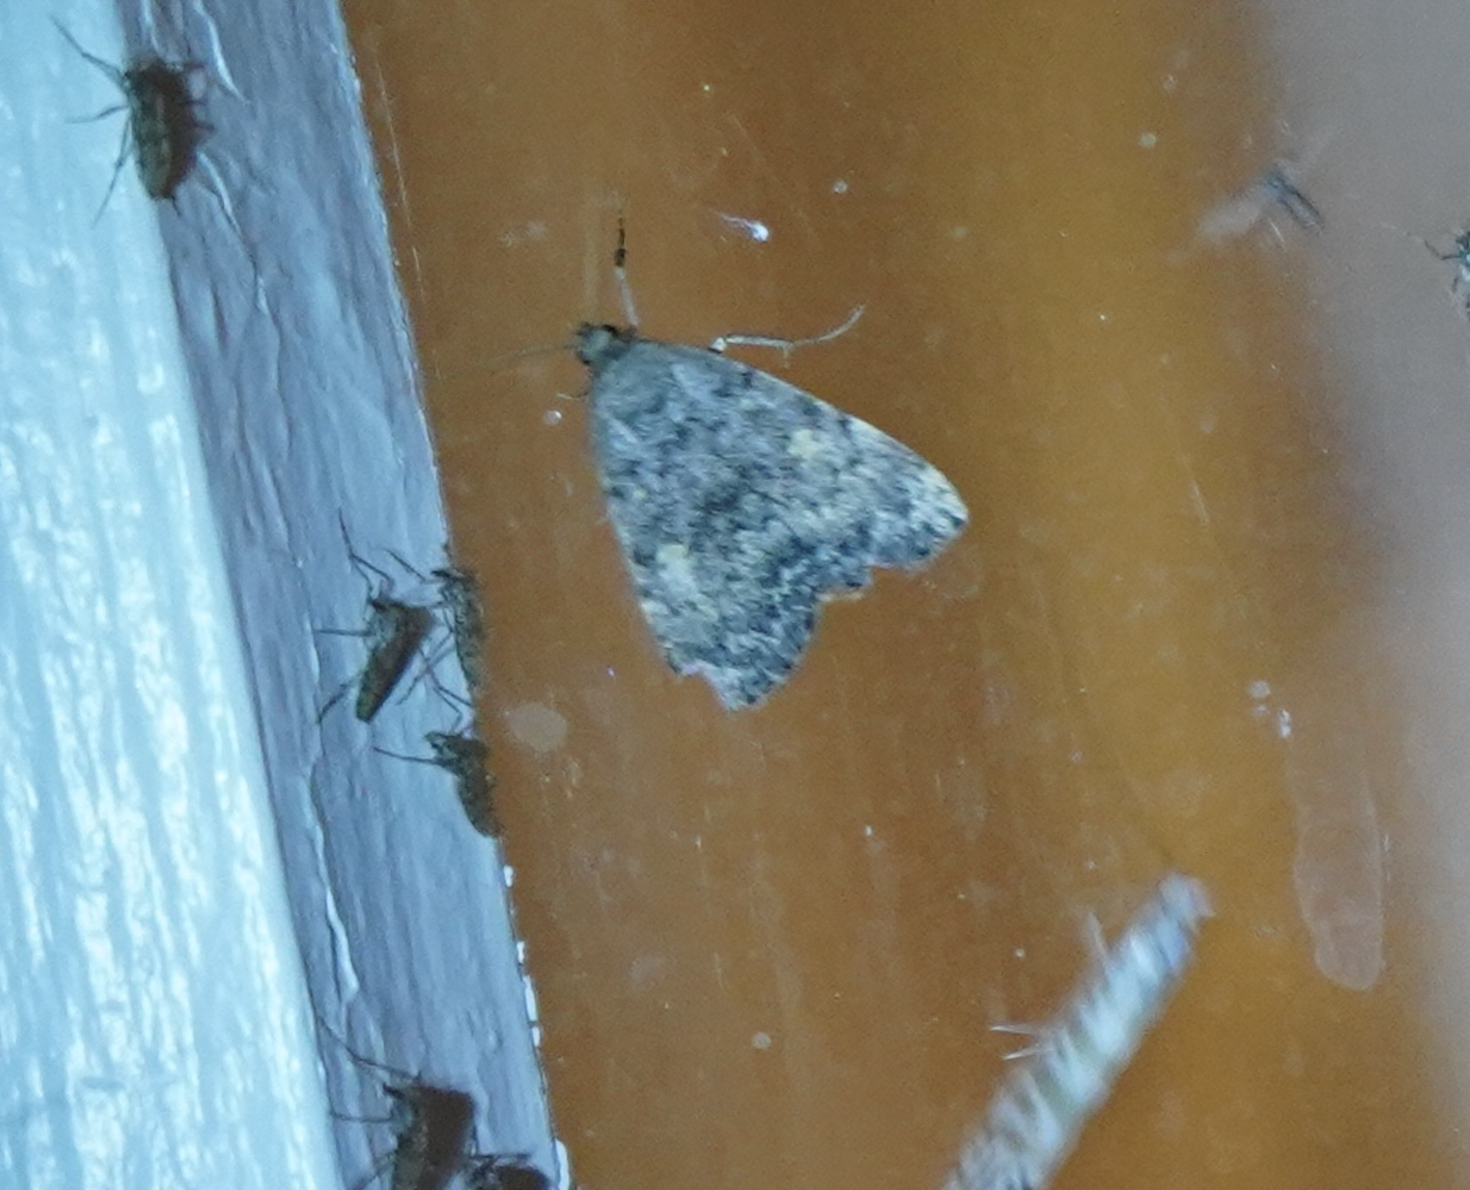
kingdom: Animalia
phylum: Arthropoda
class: Insecta
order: Lepidoptera
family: Erebidae
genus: Idia
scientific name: Idia aemula
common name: Common idia moth
